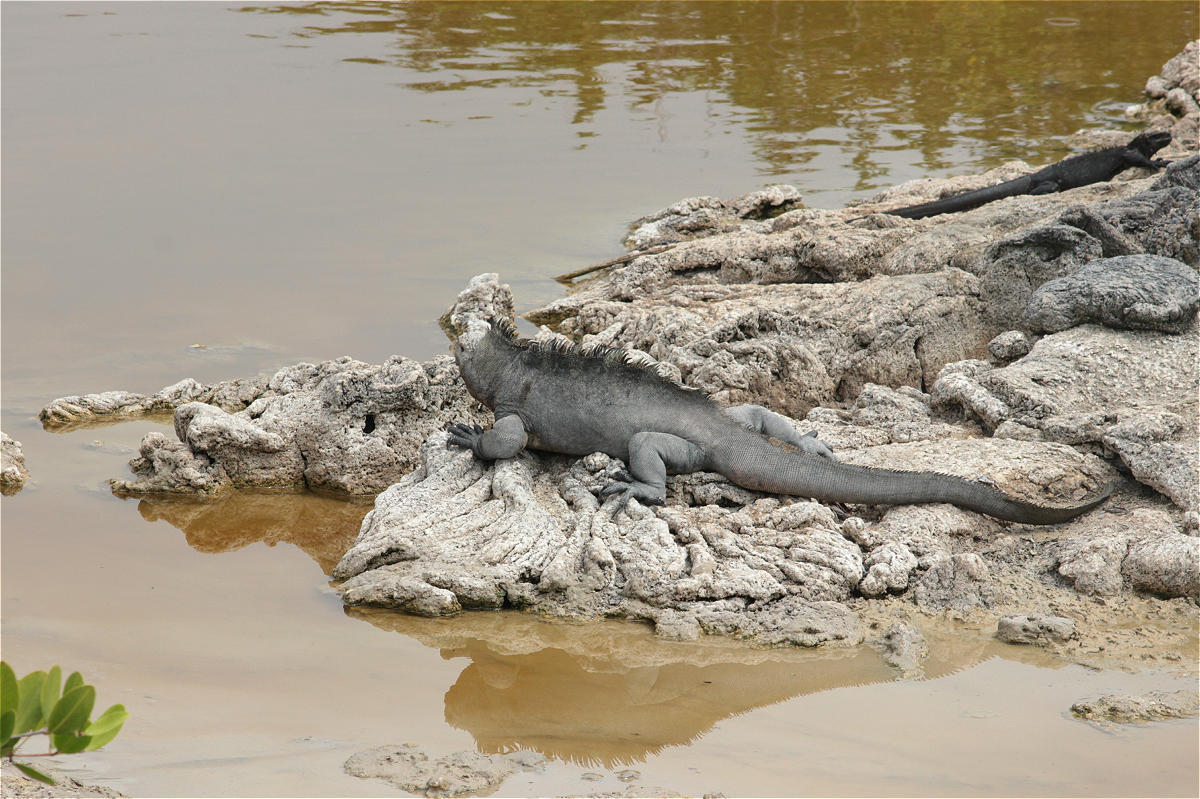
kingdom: Animalia
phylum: Chordata
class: Squamata
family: Iguanidae
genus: Amblyrhynchus
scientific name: Amblyrhynchus cristatus
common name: Marine iguana
